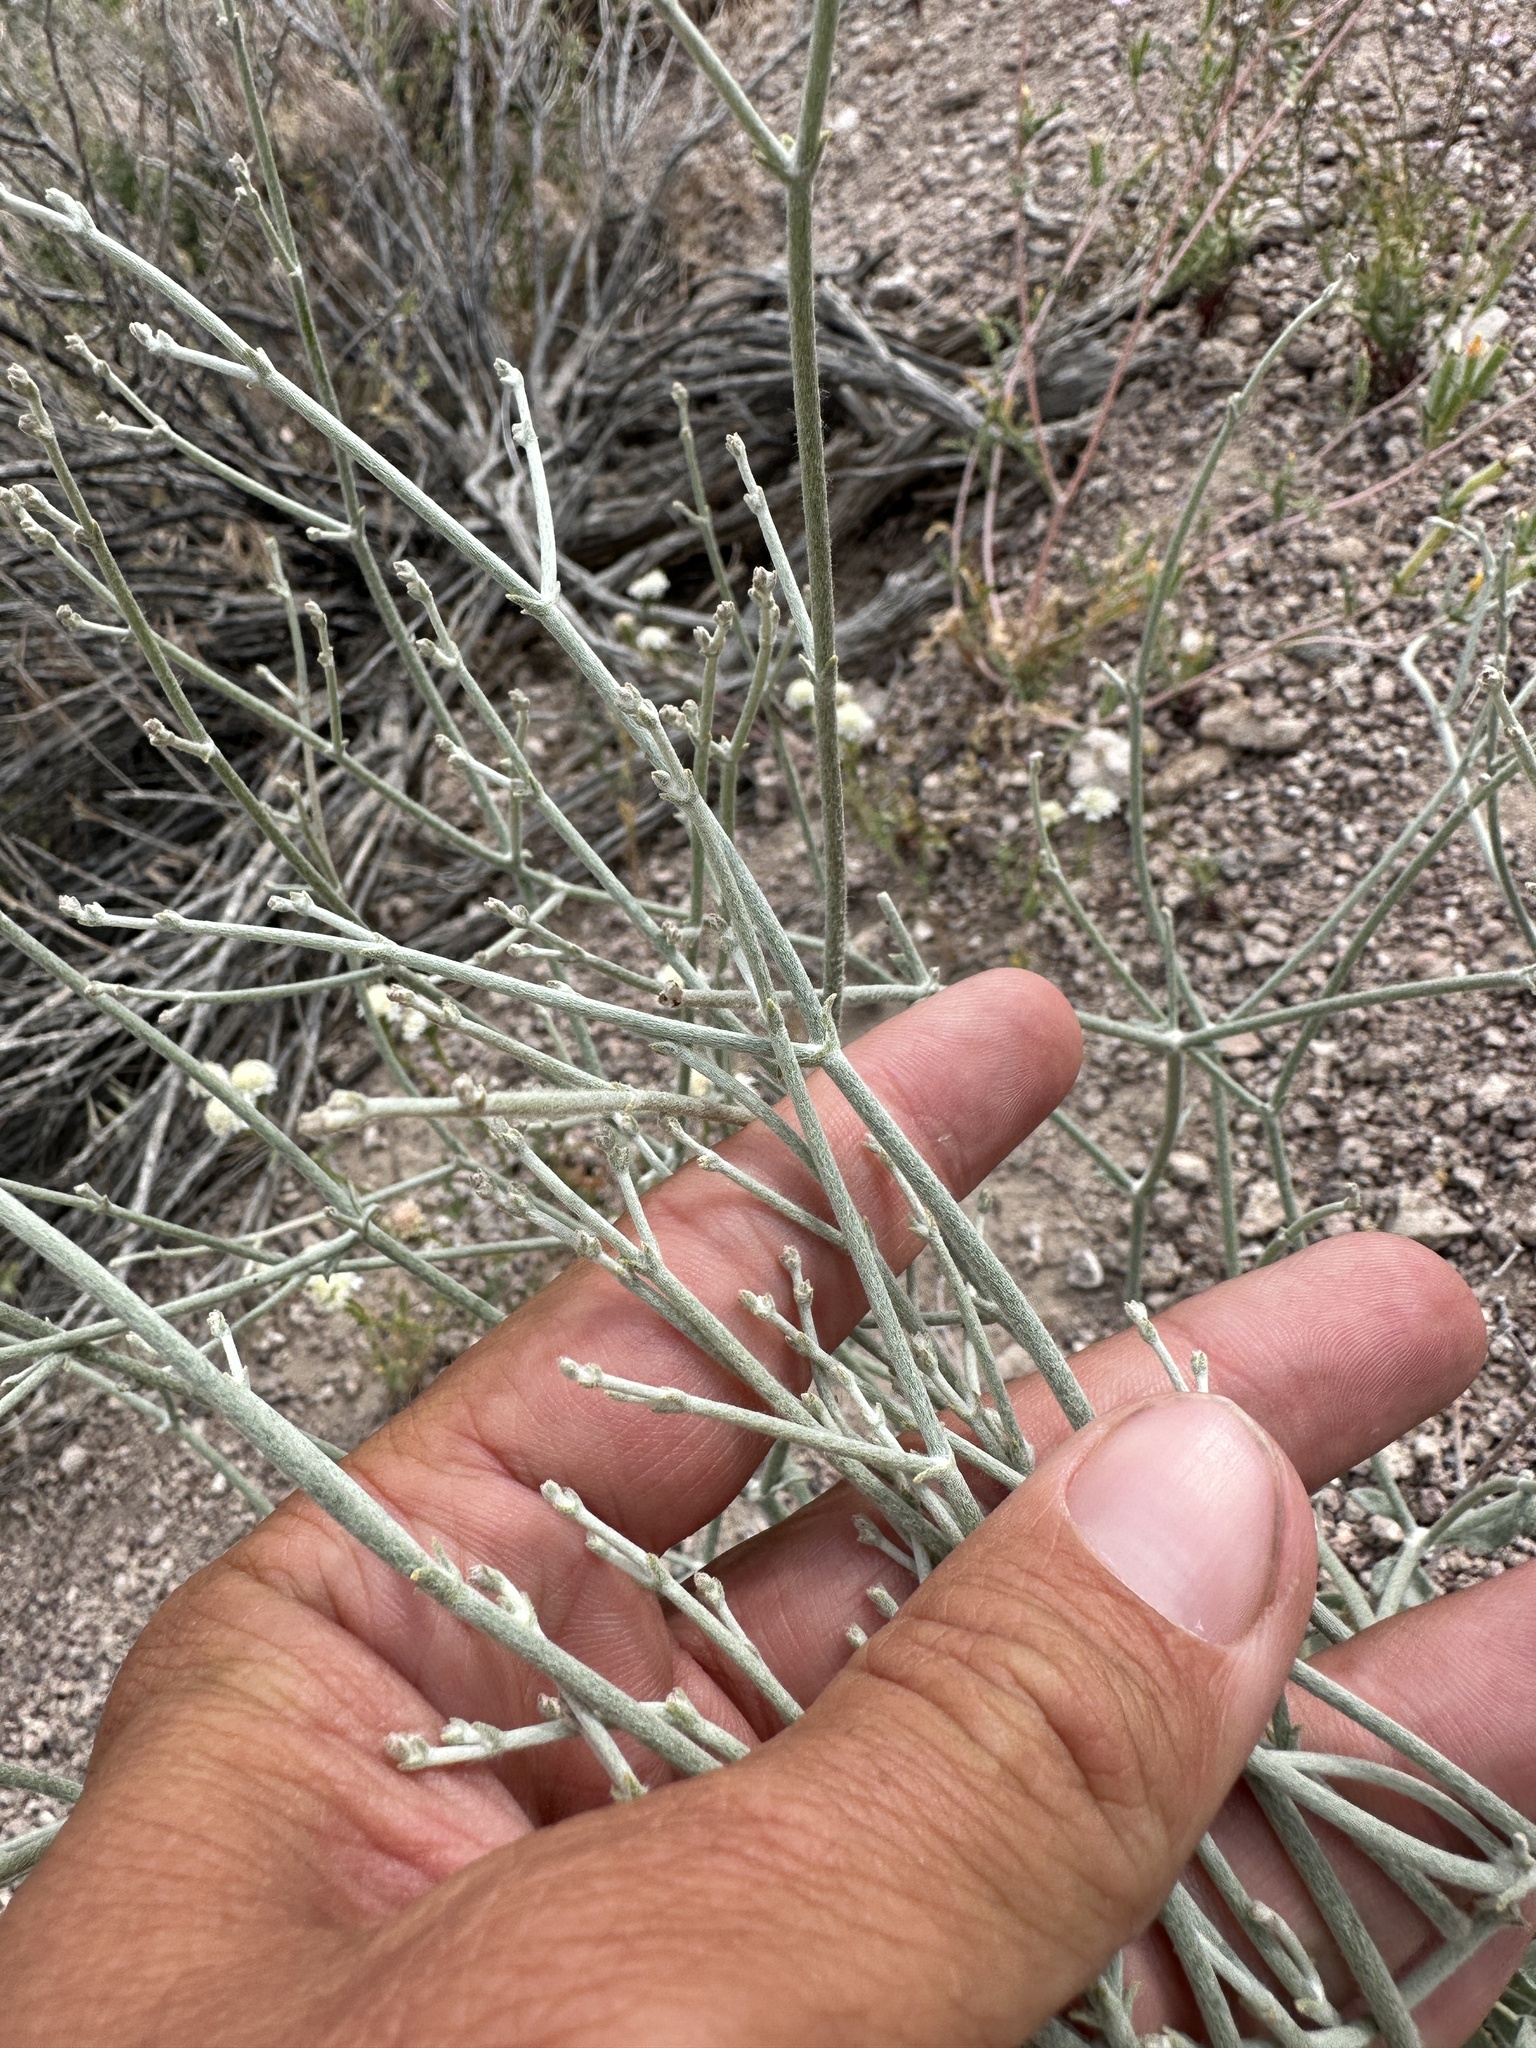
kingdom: Plantae
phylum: Tracheophyta
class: Magnoliopsida
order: Caryophyllales
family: Polygonaceae
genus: Eriogonum
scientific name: Eriogonum nummulare
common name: Kearney wild buckwheat
